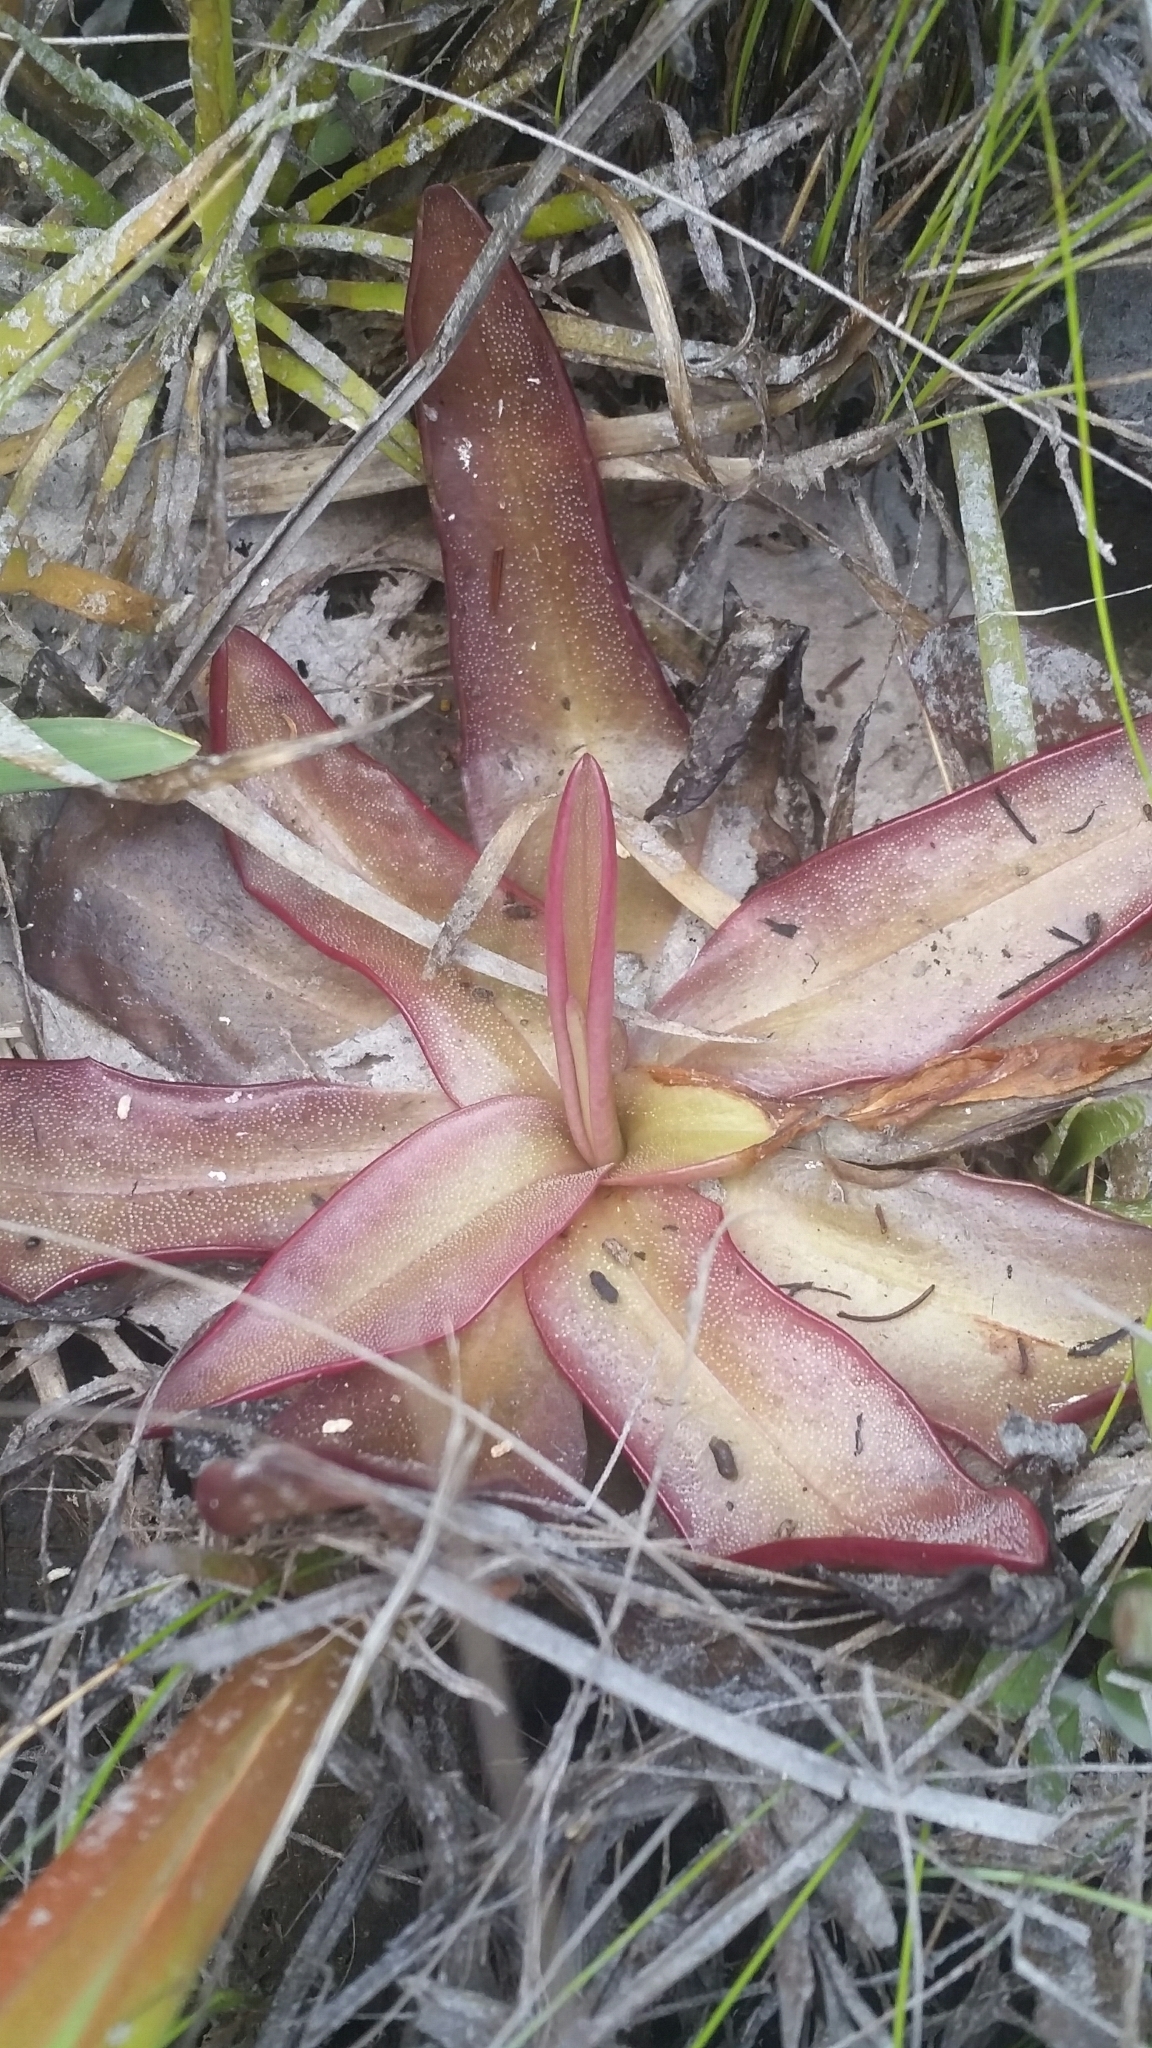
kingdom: Plantae
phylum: Tracheophyta
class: Magnoliopsida
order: Lamiales
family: Lentibulariaceae
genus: Pinguicula
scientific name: Pinguicula planifolia
